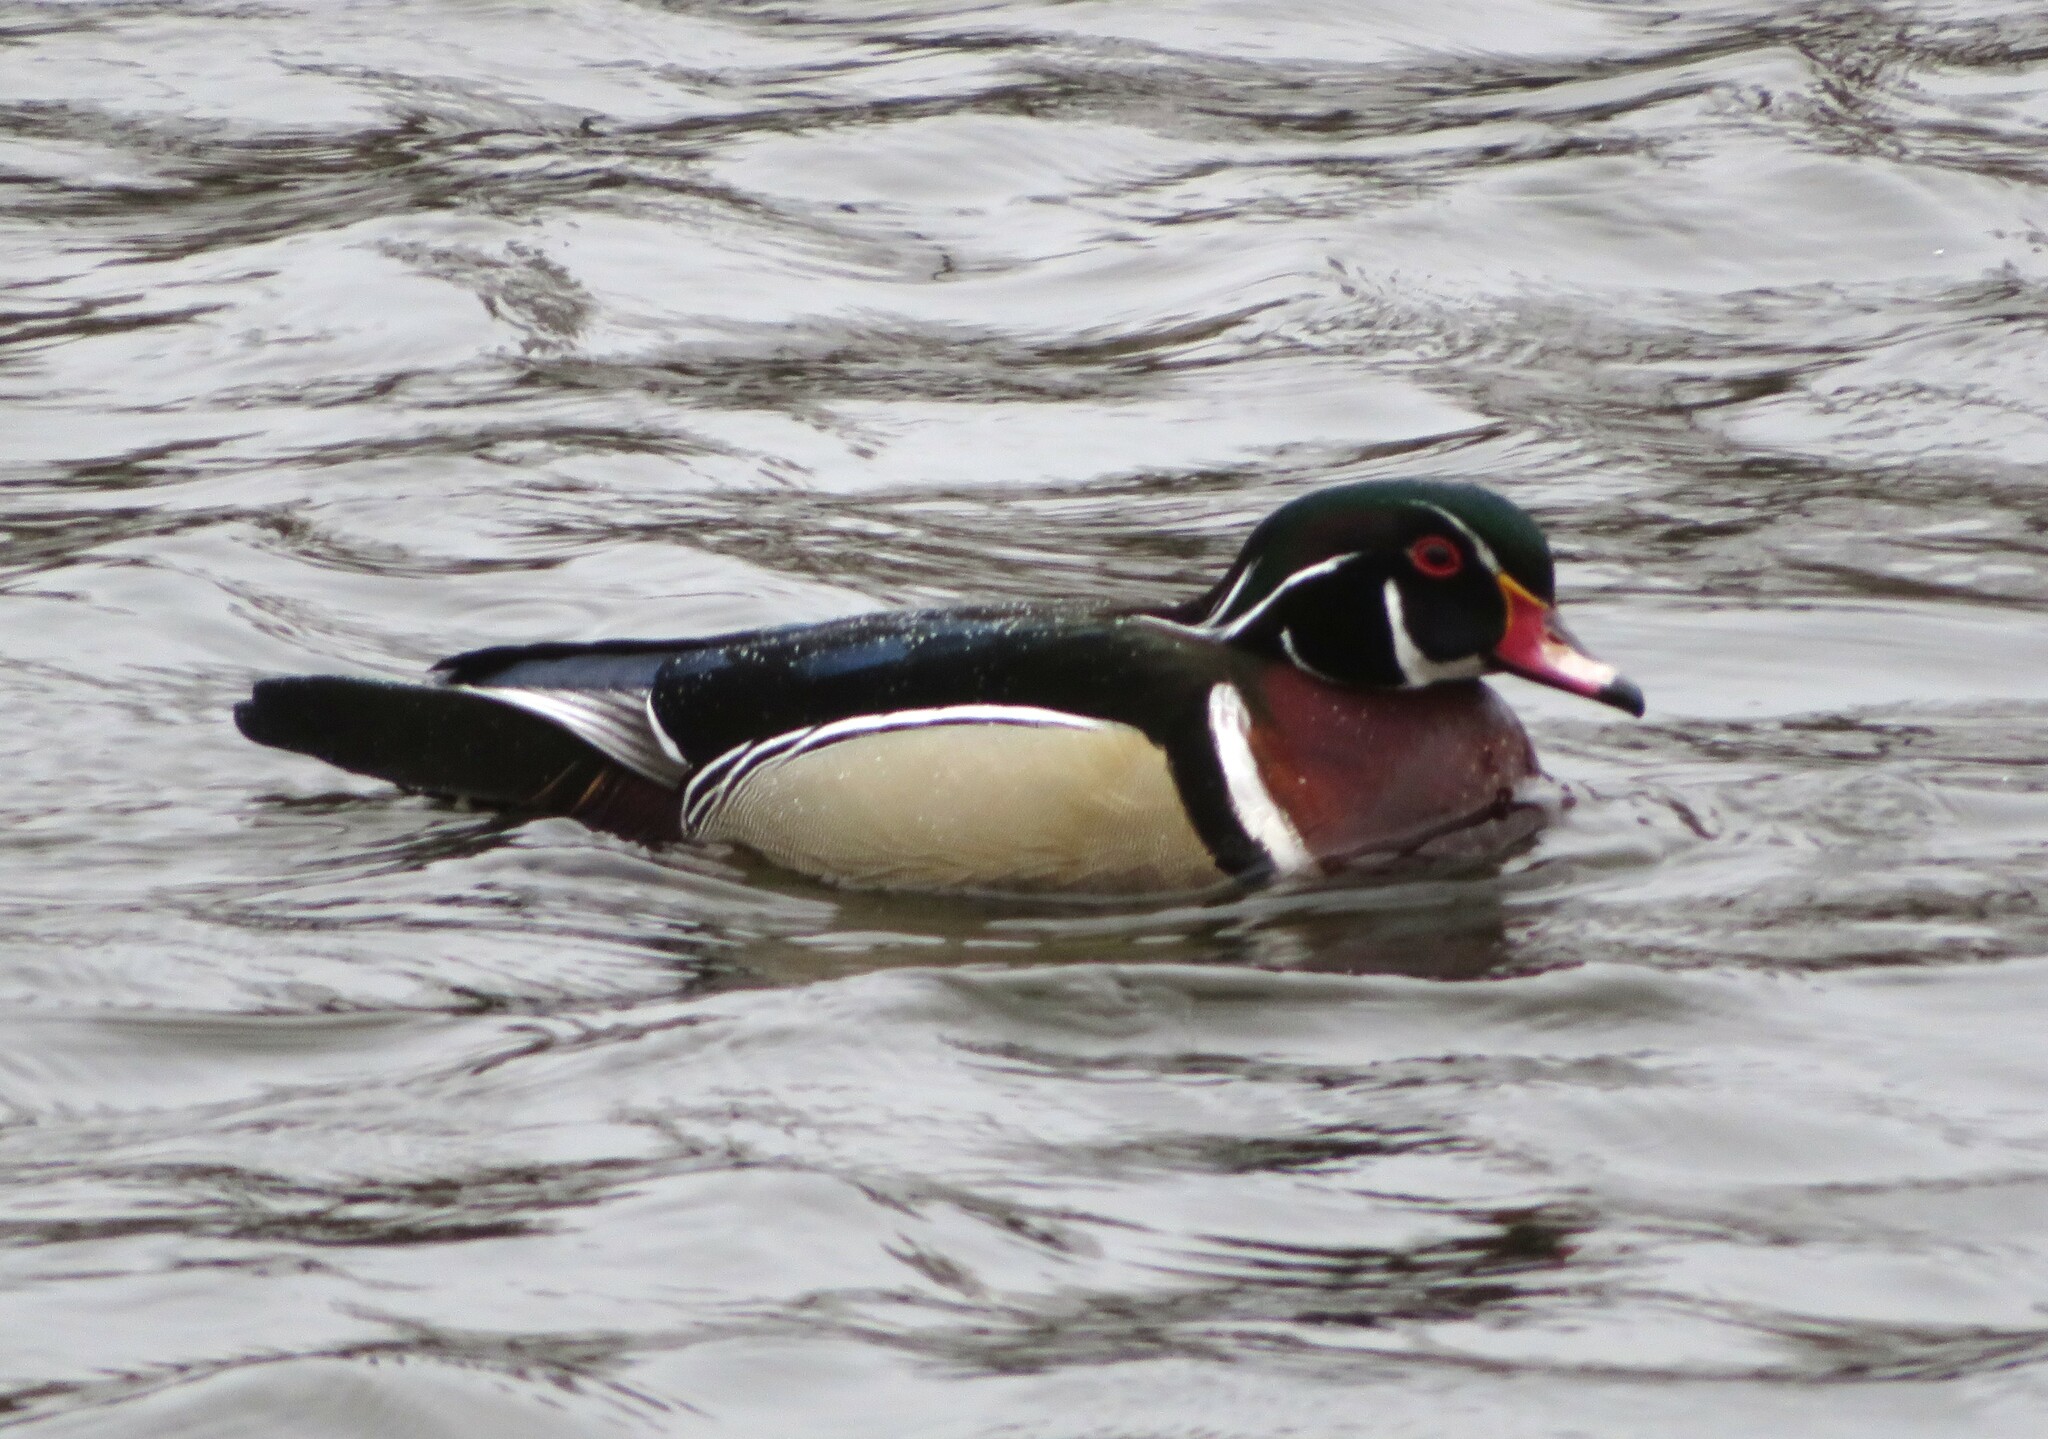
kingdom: Animalia
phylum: Chordata
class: Aves
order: Anseriformes
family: Anatidae
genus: Aix
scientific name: Aix sponsa
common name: Wood duck
